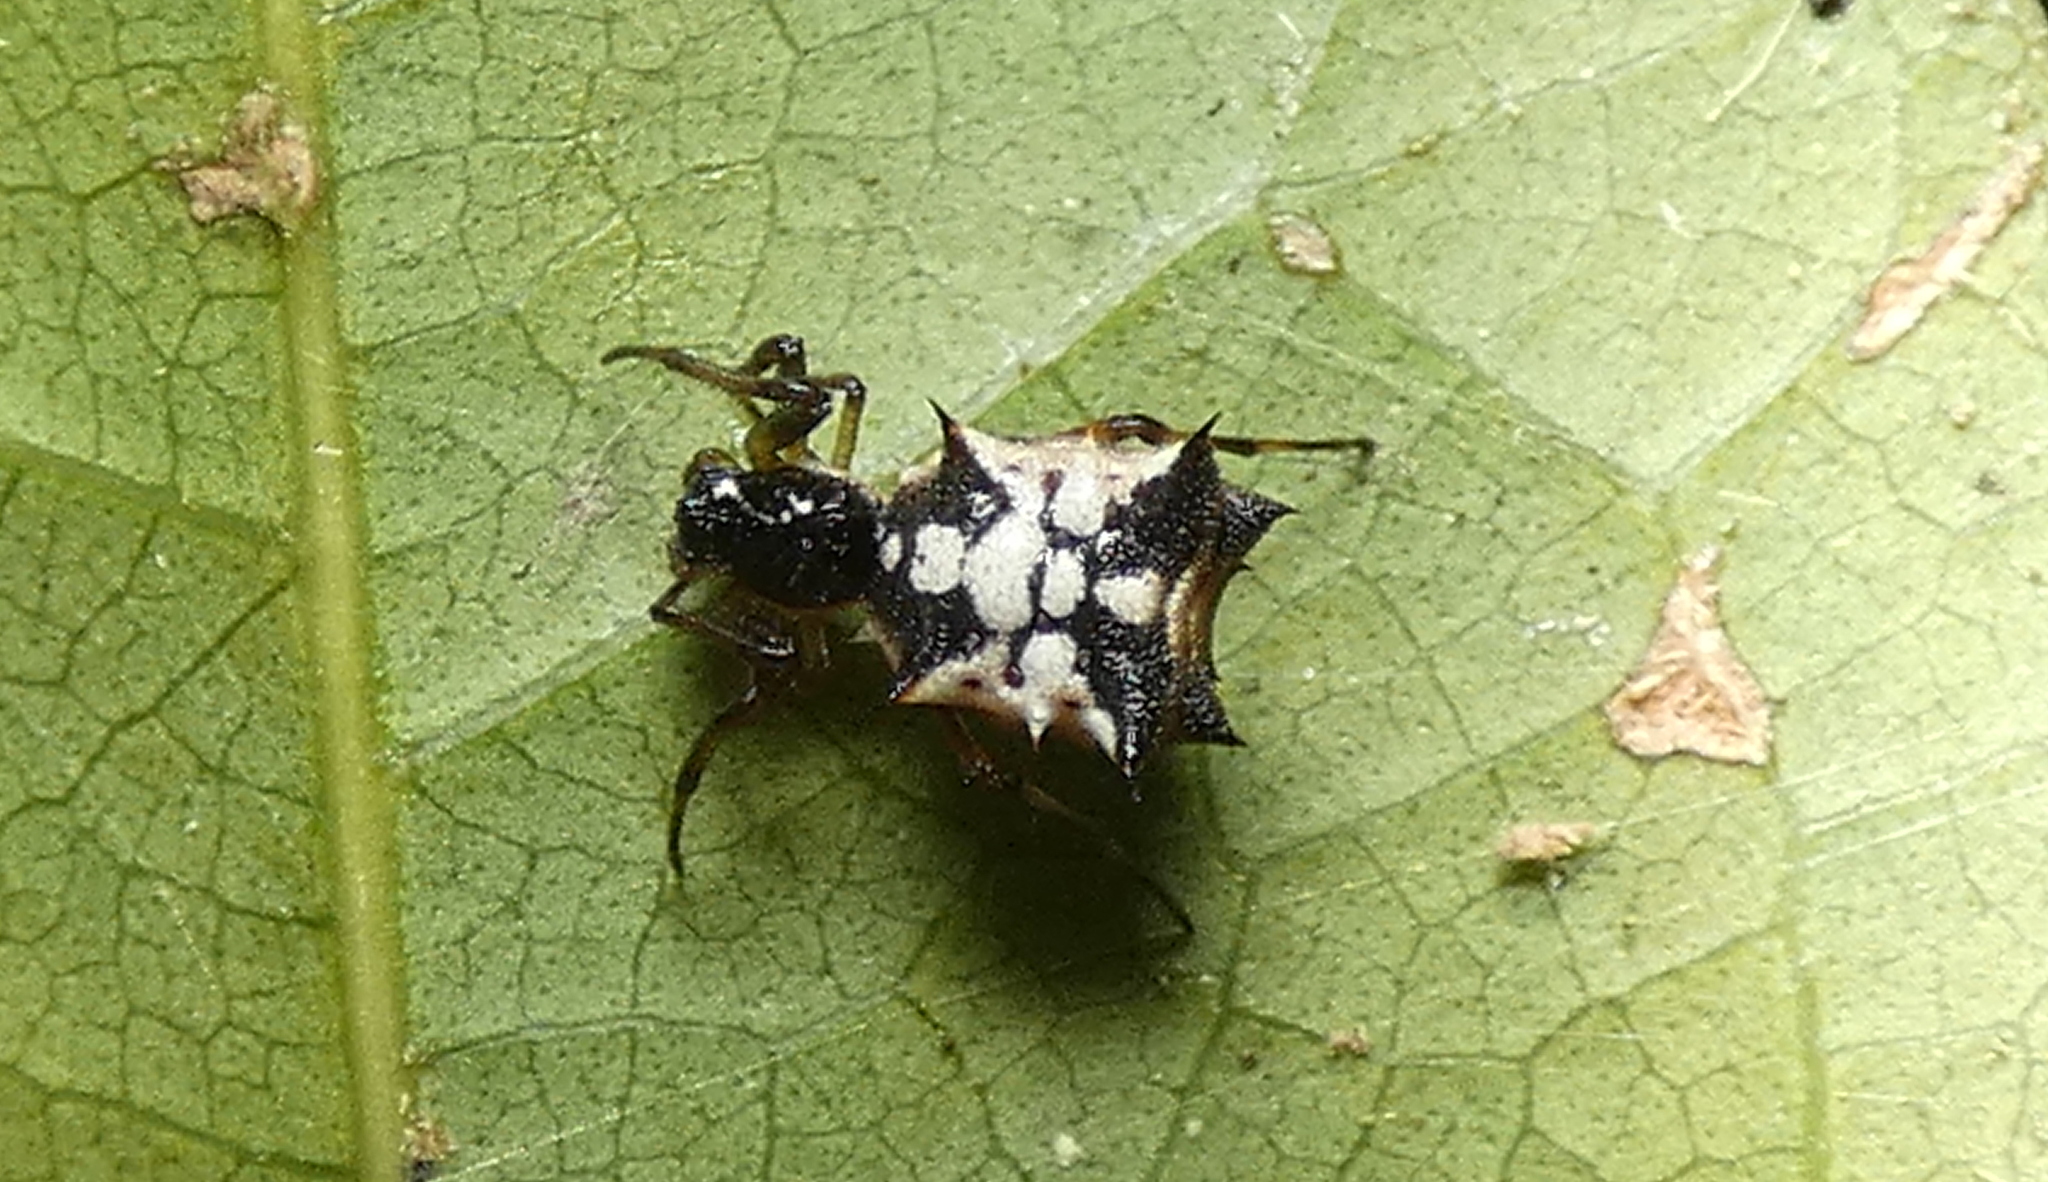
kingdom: Animalia
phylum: Arthropoda
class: Arachnida
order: Araneae
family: Araneidae
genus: Micrathena
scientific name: Micrathena picta
